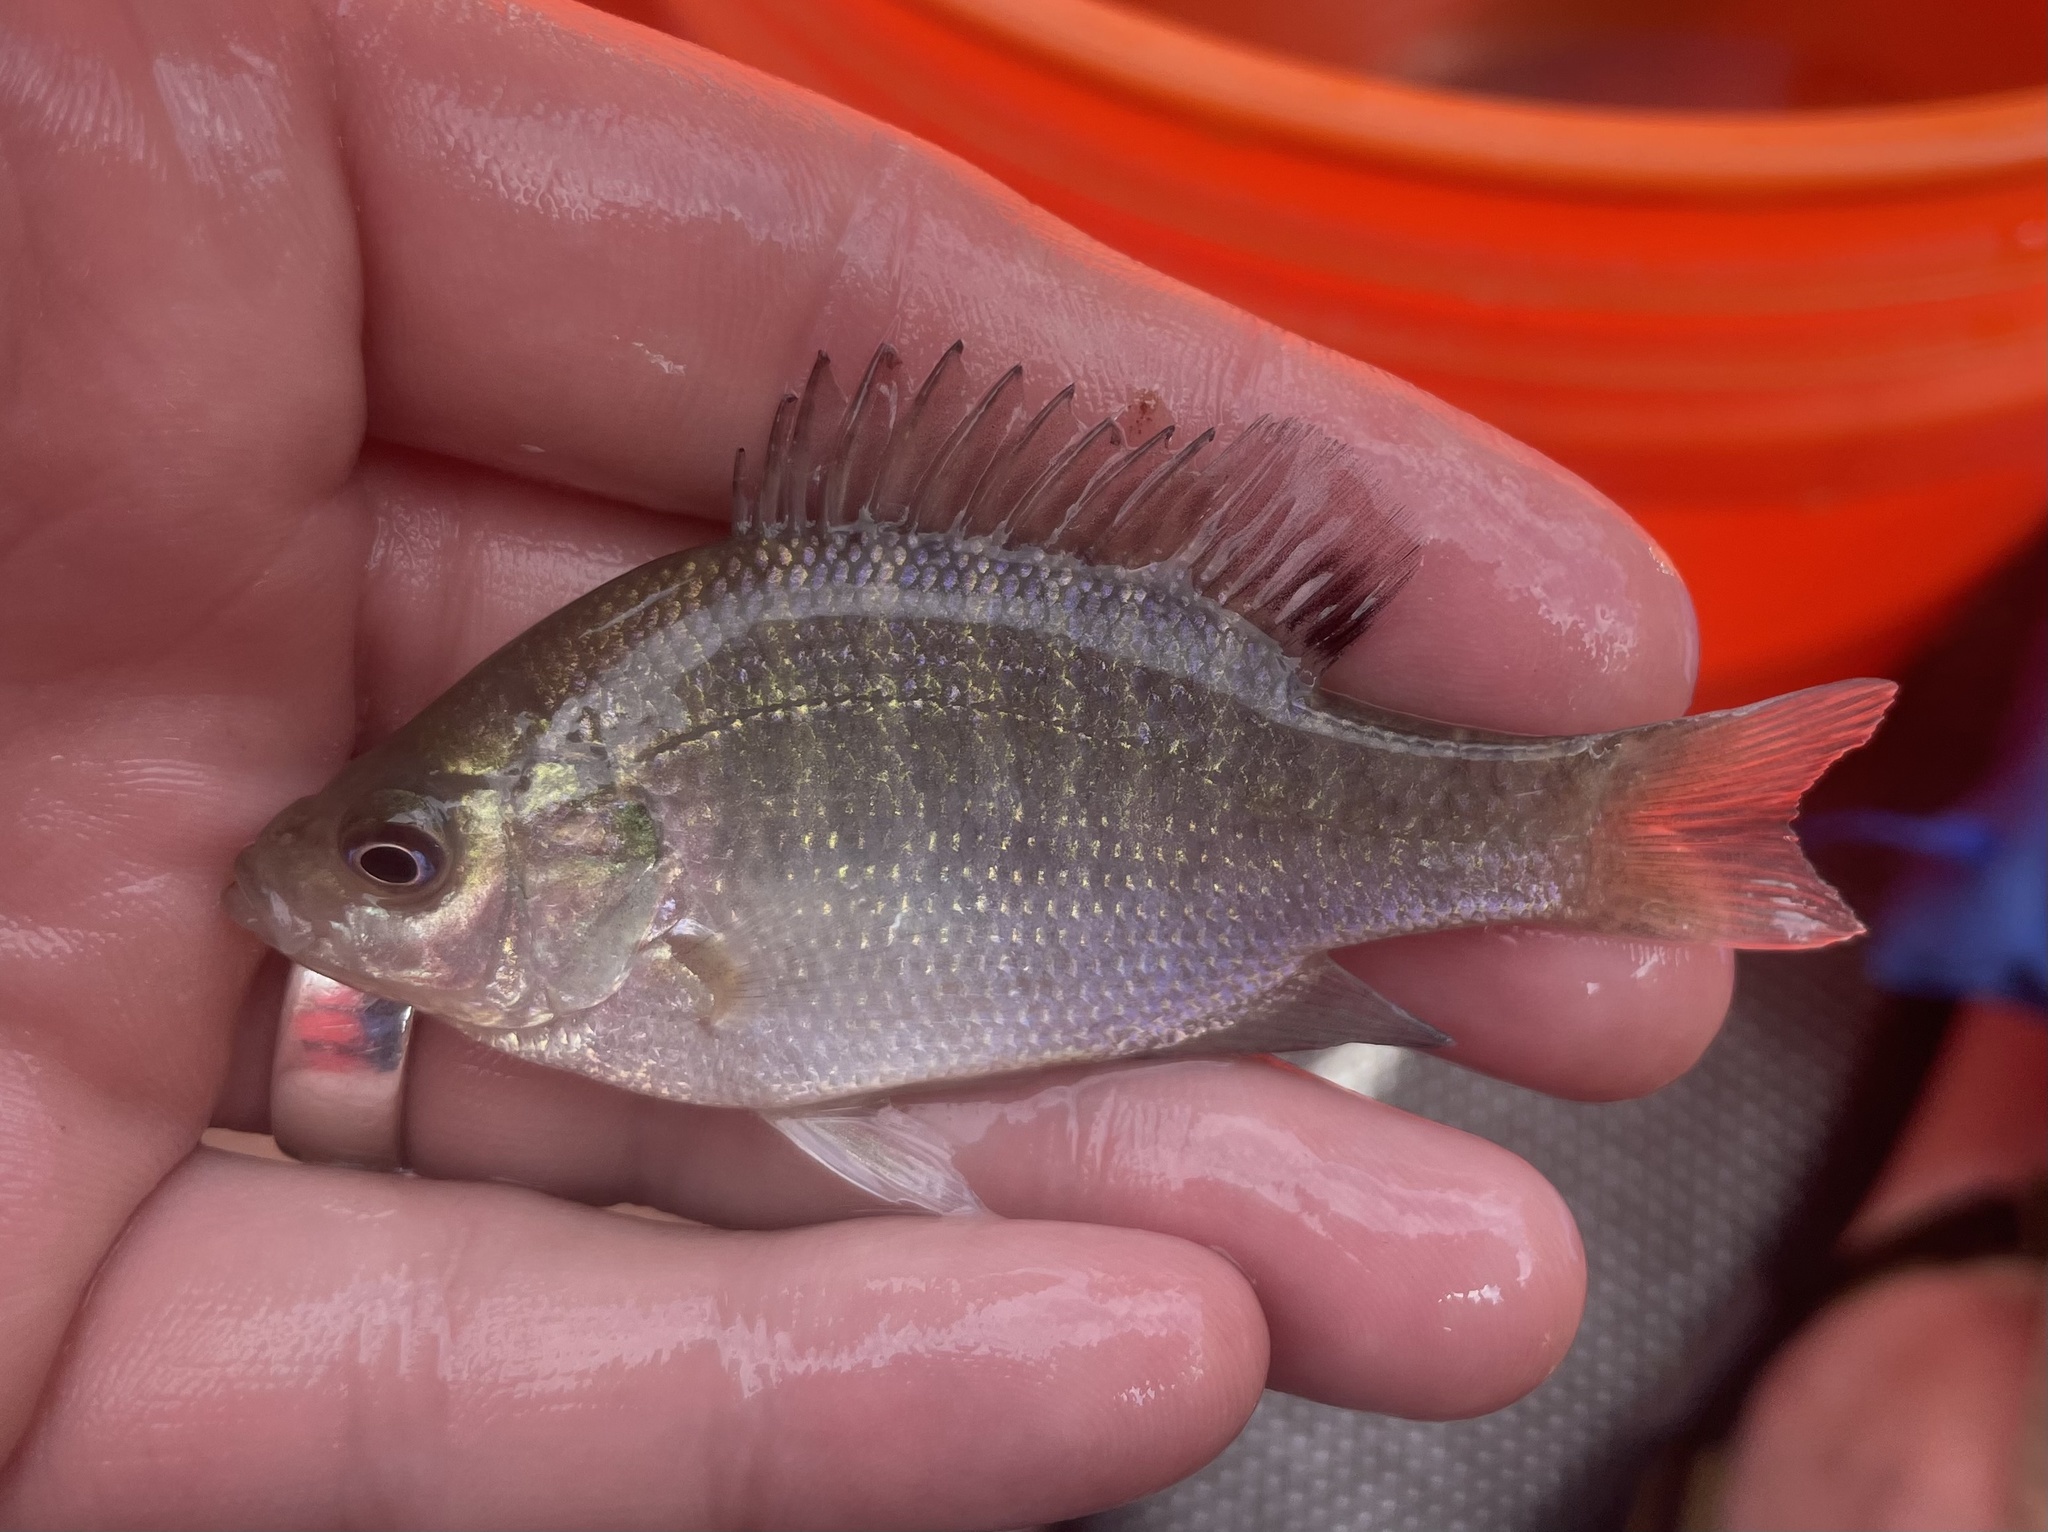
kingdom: Animalia
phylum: Chordata
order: Perciformes
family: Centrarchidae
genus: Lepomis
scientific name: Lepomis macrochirus
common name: Bluegill
